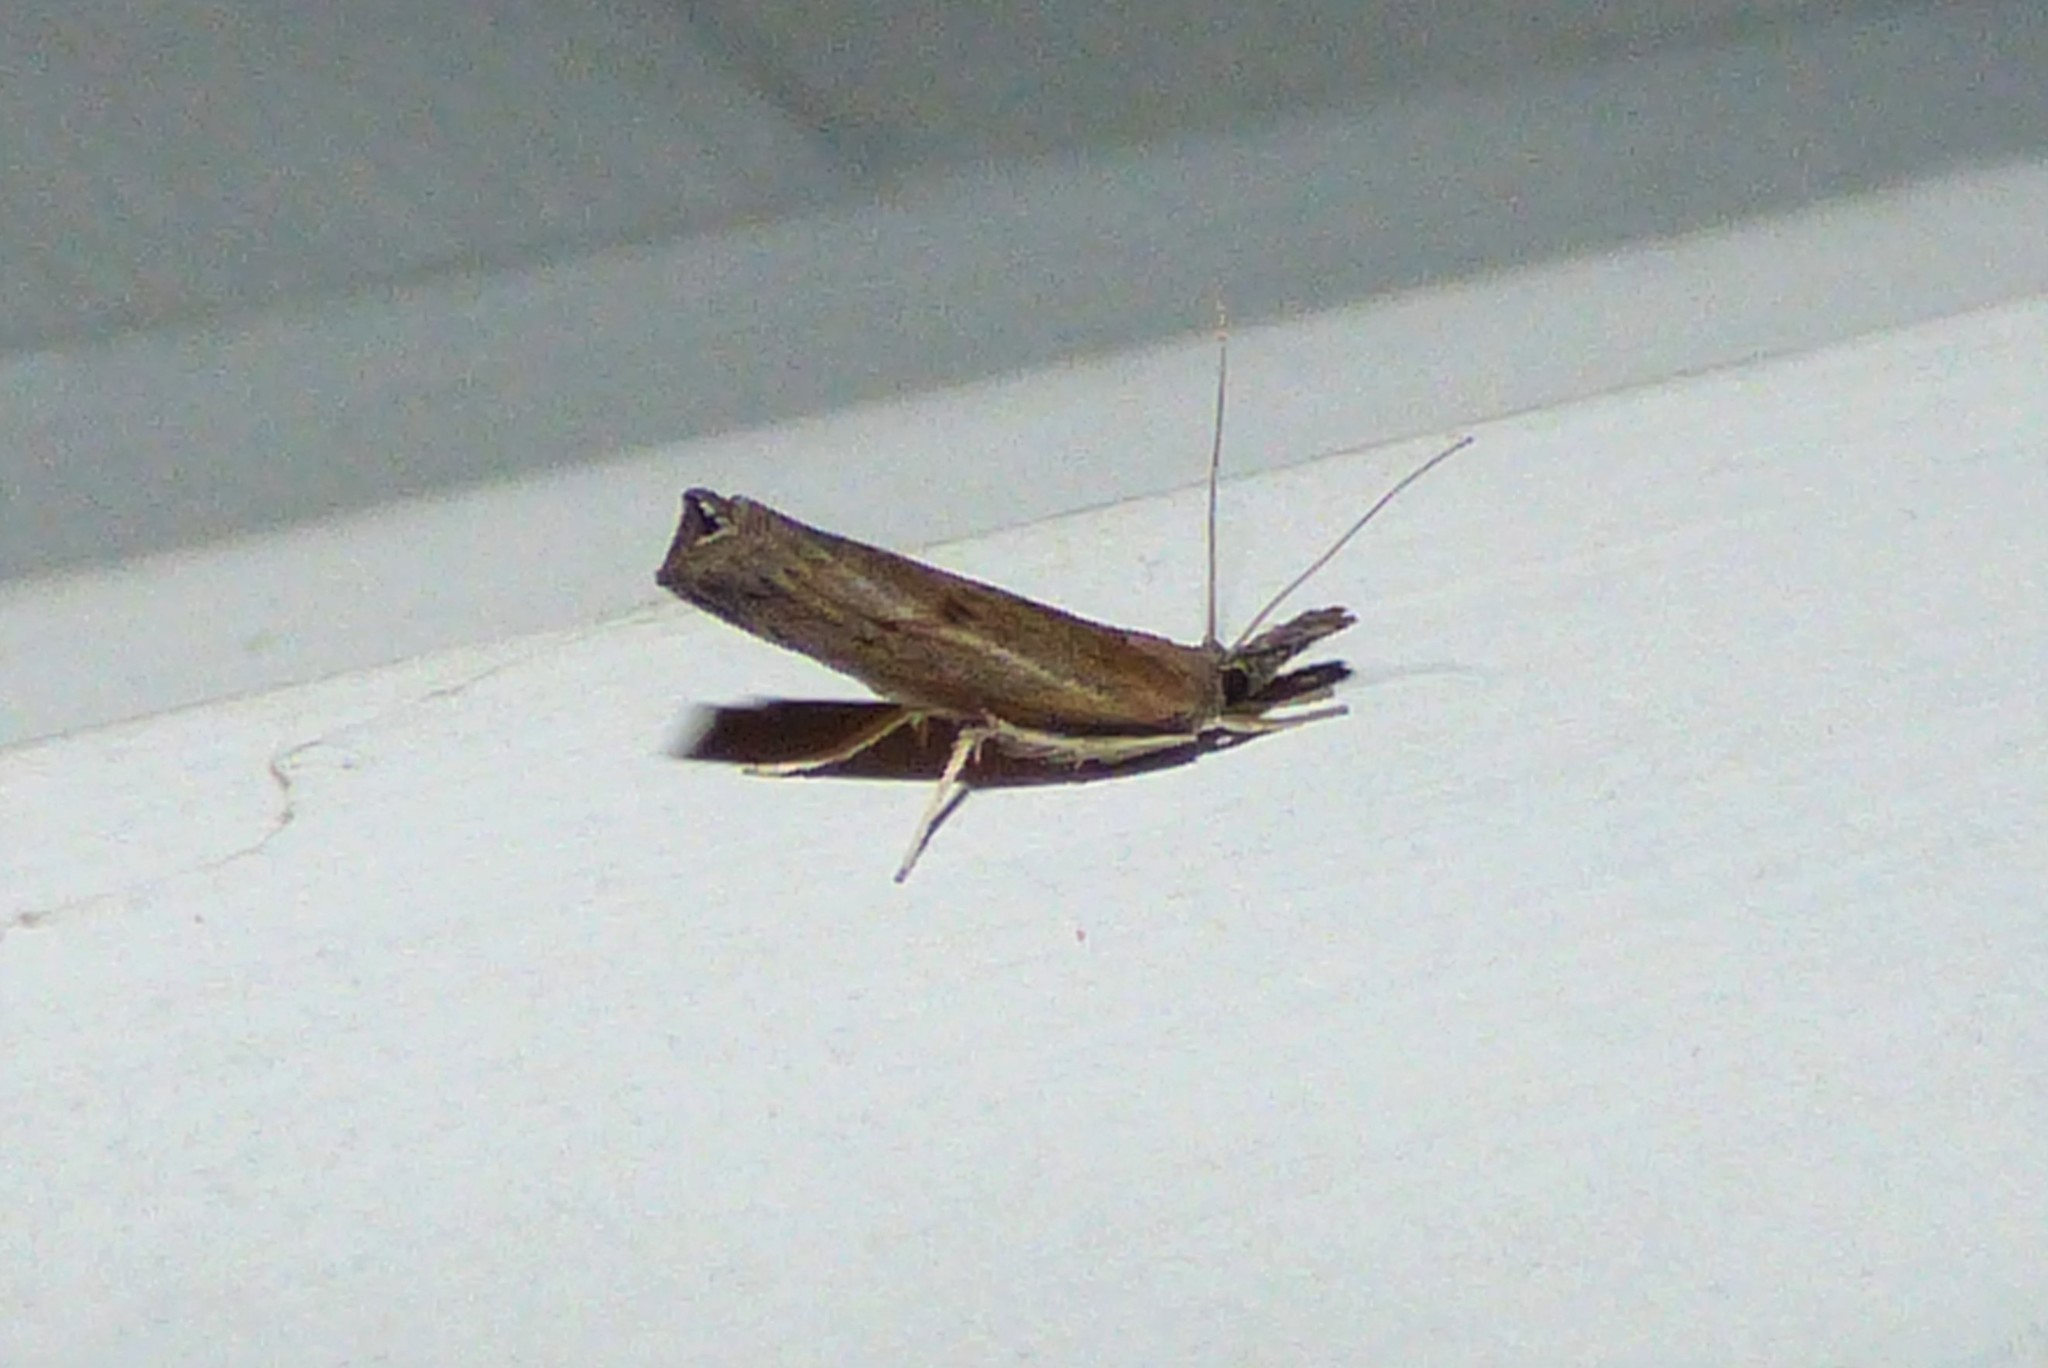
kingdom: Animalia
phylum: Arthropoda
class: Insecta
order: Lepidoptera
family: Crambidae
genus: Fissicrambus
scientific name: Fissicrambus mutabilis
